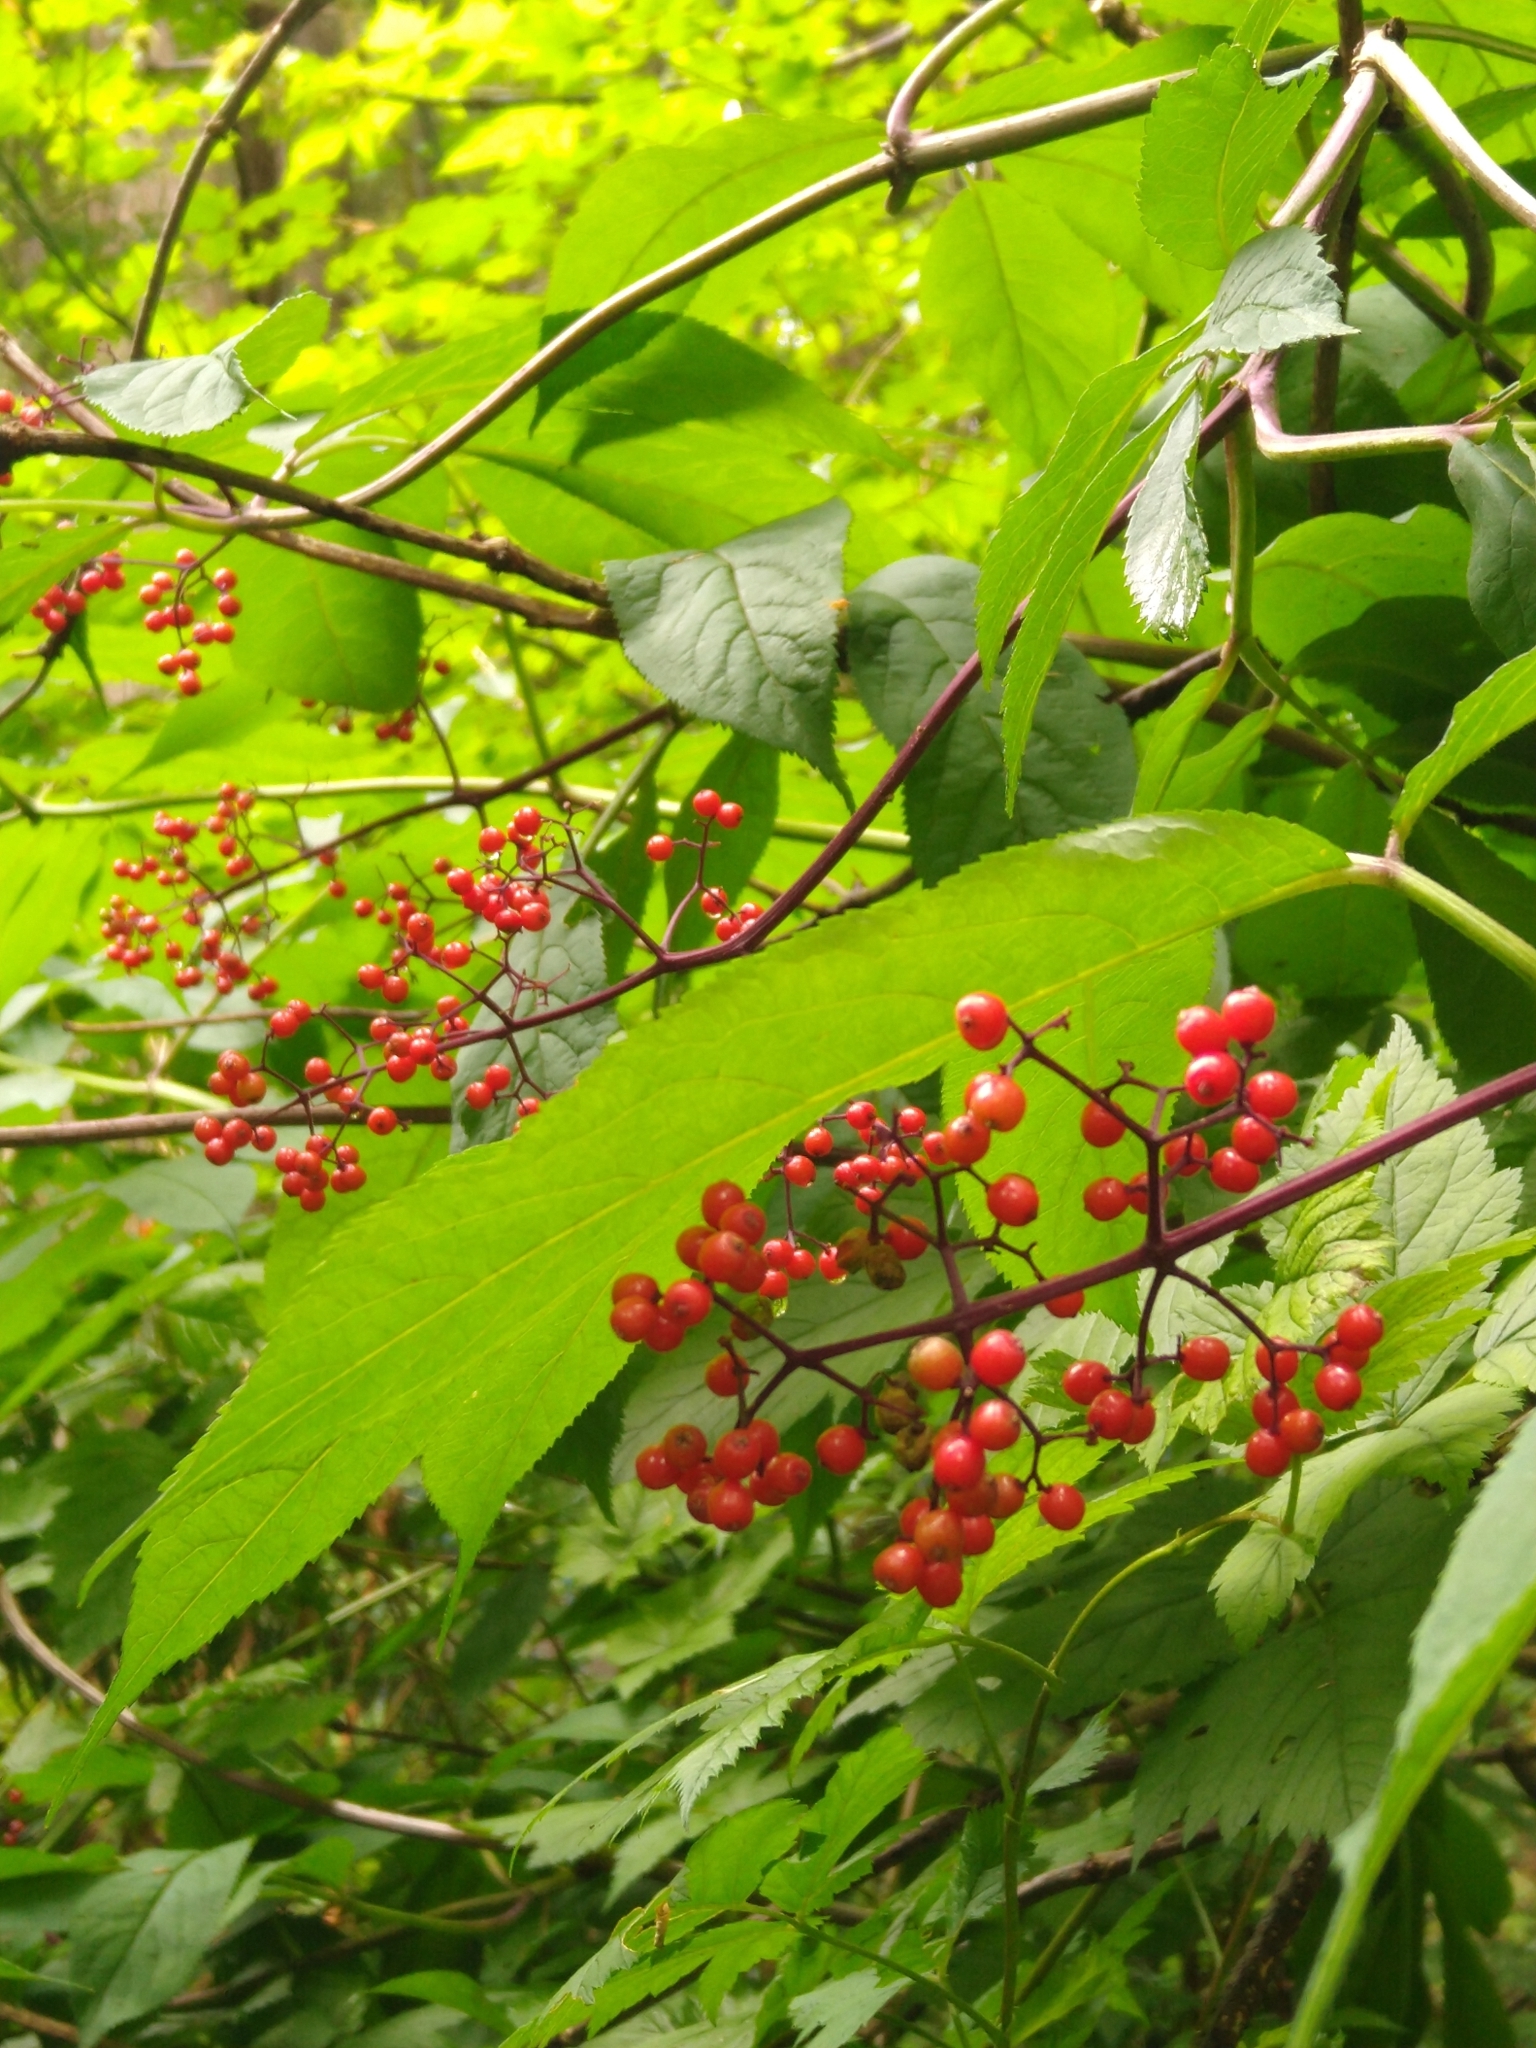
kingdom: Plantae
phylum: Tracheophyta
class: Magnoliopsida
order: Dipsacales
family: Viburnaceae
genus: Sambucus
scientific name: Sambucus racemosa
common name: Red-berried elder
